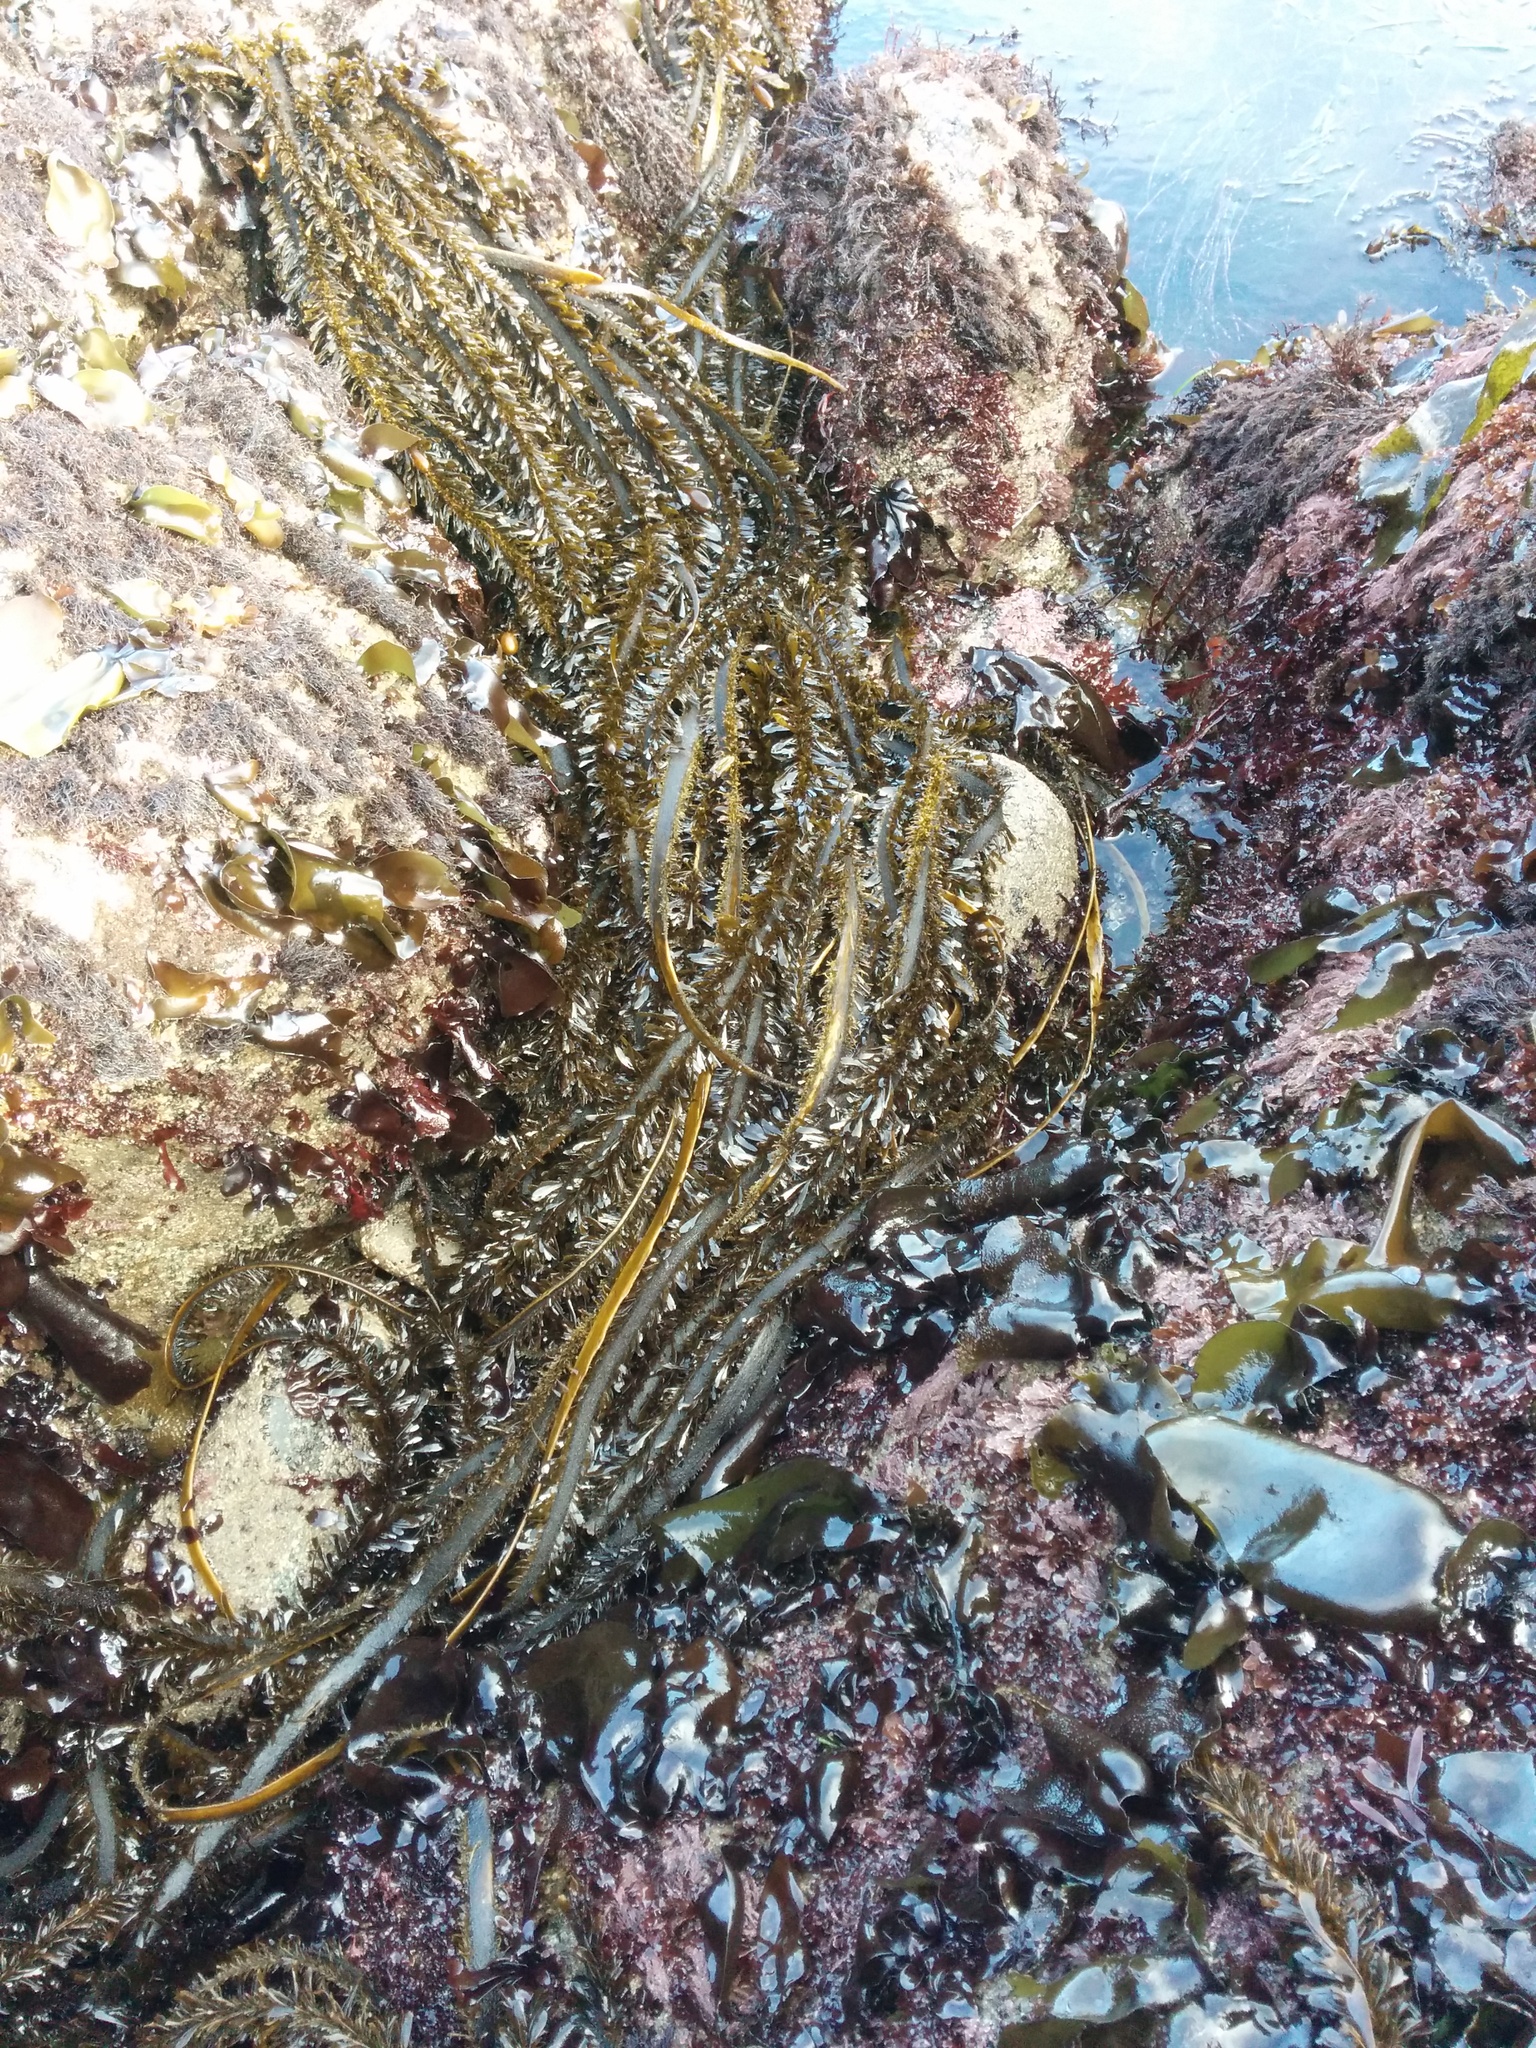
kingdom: Chromista
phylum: Ochrophyta
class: Phaeophyceae
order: Laminariales
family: Lessoniaceae
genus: Egregia
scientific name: Egregia menziesii
